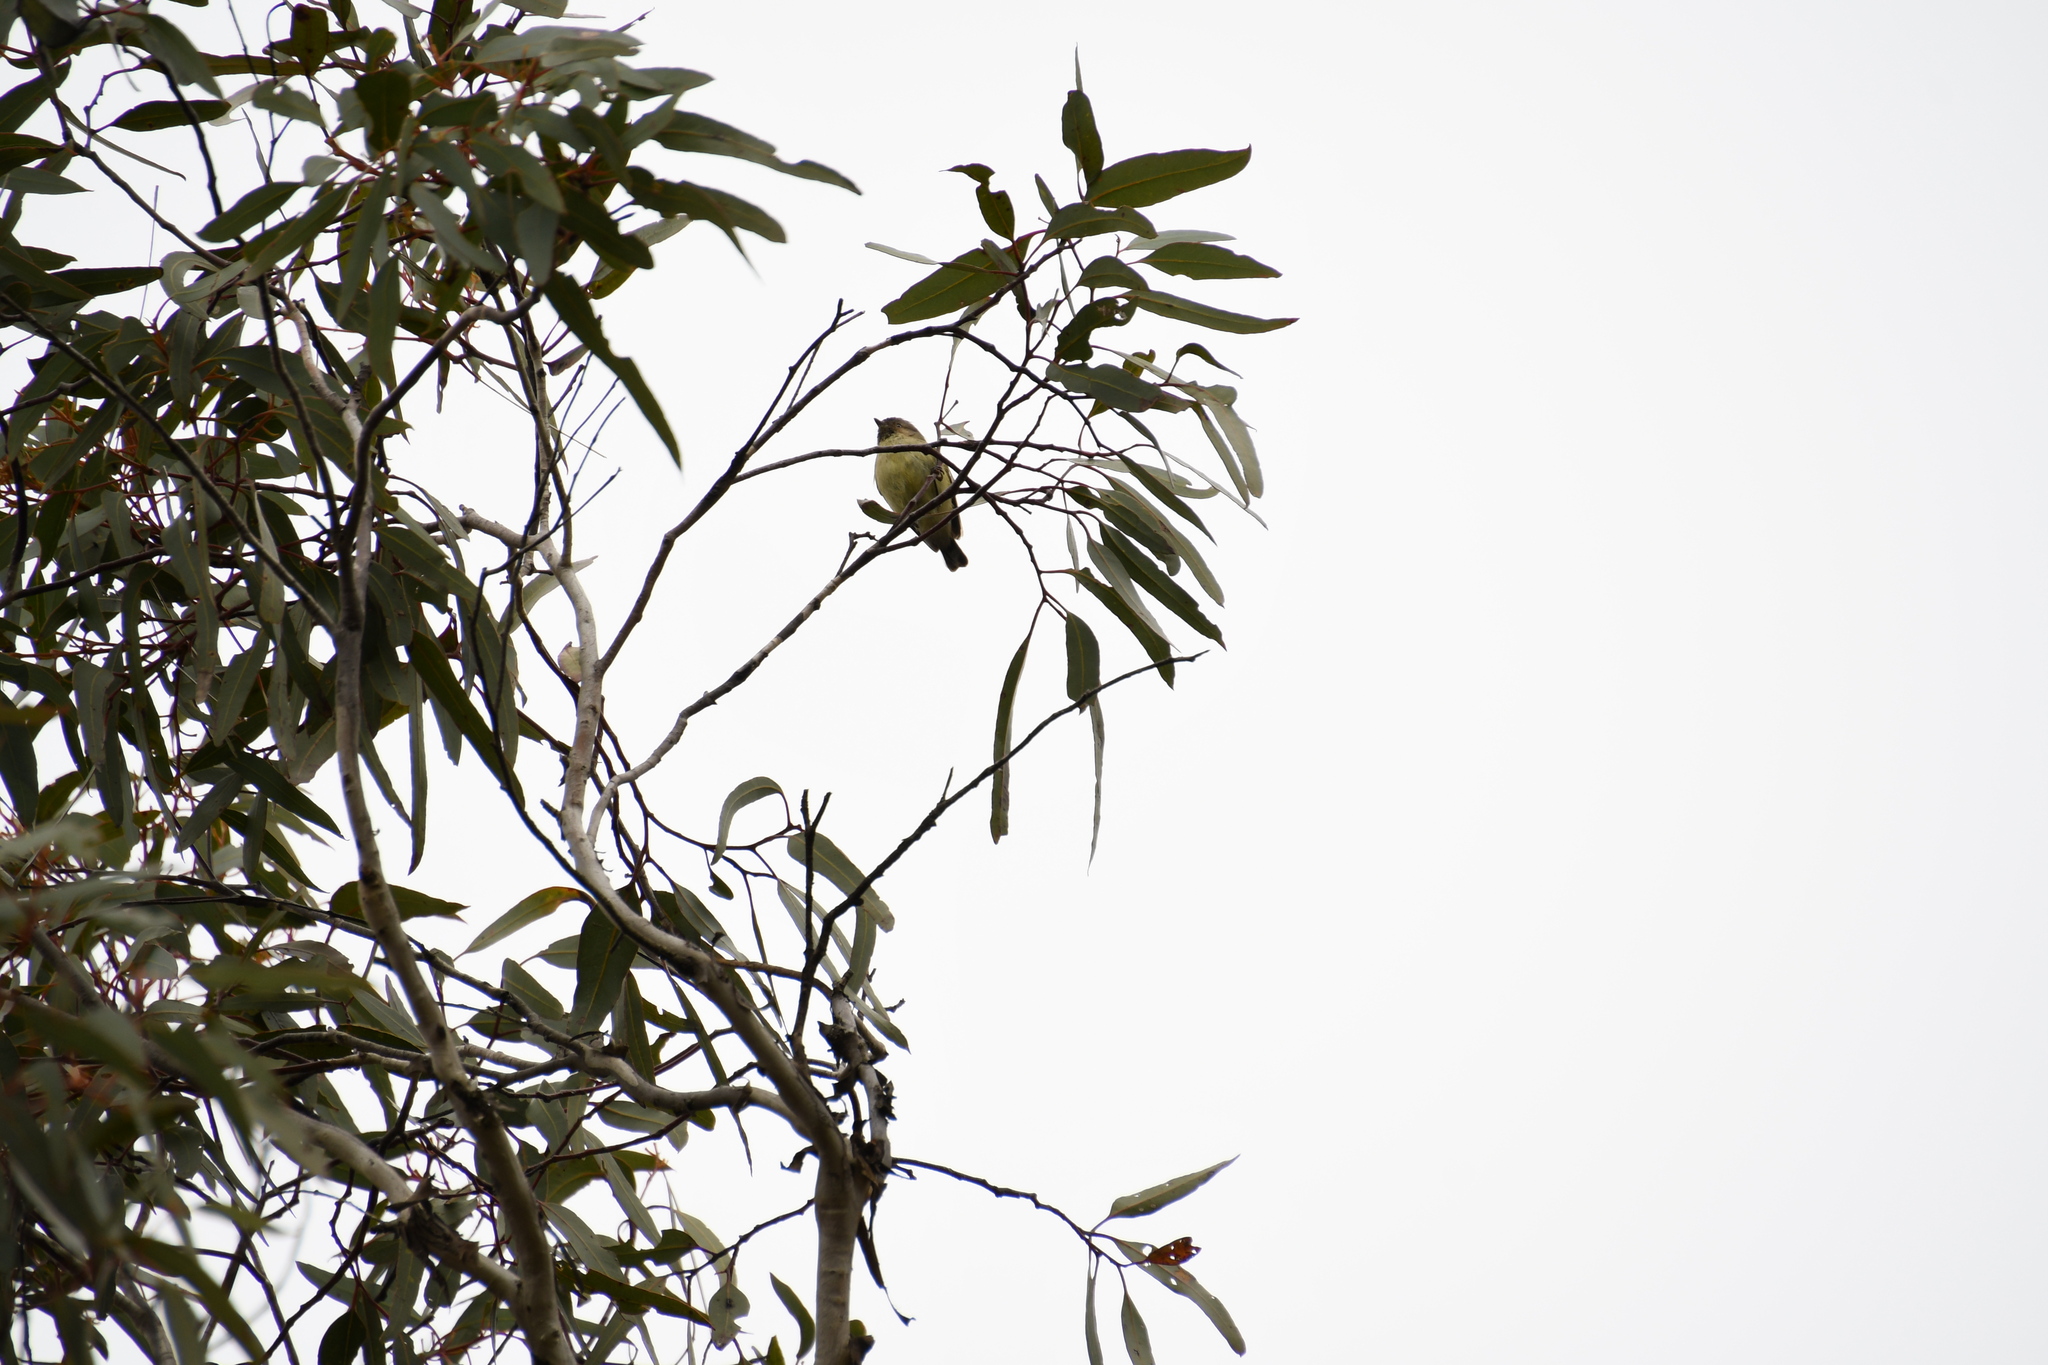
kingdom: Animalia
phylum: Chordata
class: Aves
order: Passeriformes
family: Acanthizidae
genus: Smicrornis
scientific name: Smicrornis brevirostris
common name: Weebill
